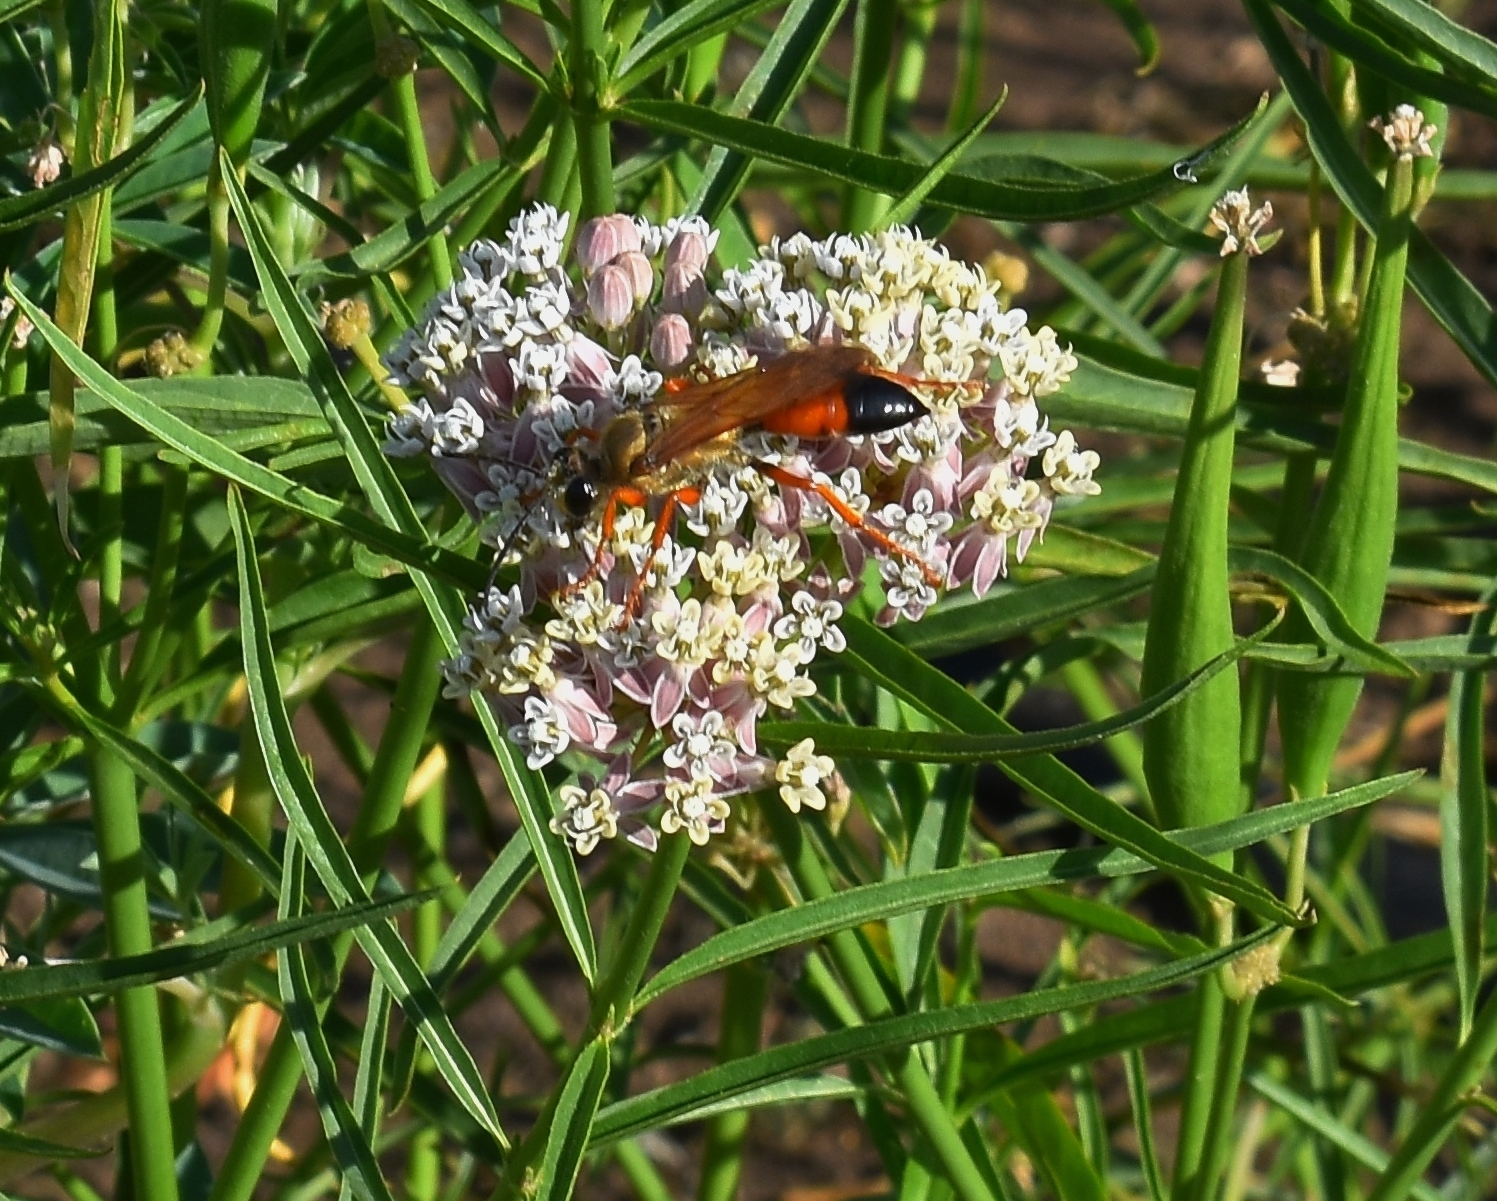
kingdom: Animalia
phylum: Arthropoda
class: Insecta
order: Hymenoptera
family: Sphecidae
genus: Sphex
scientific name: Sphex ichneumoneus
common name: Great golden digger wasp
